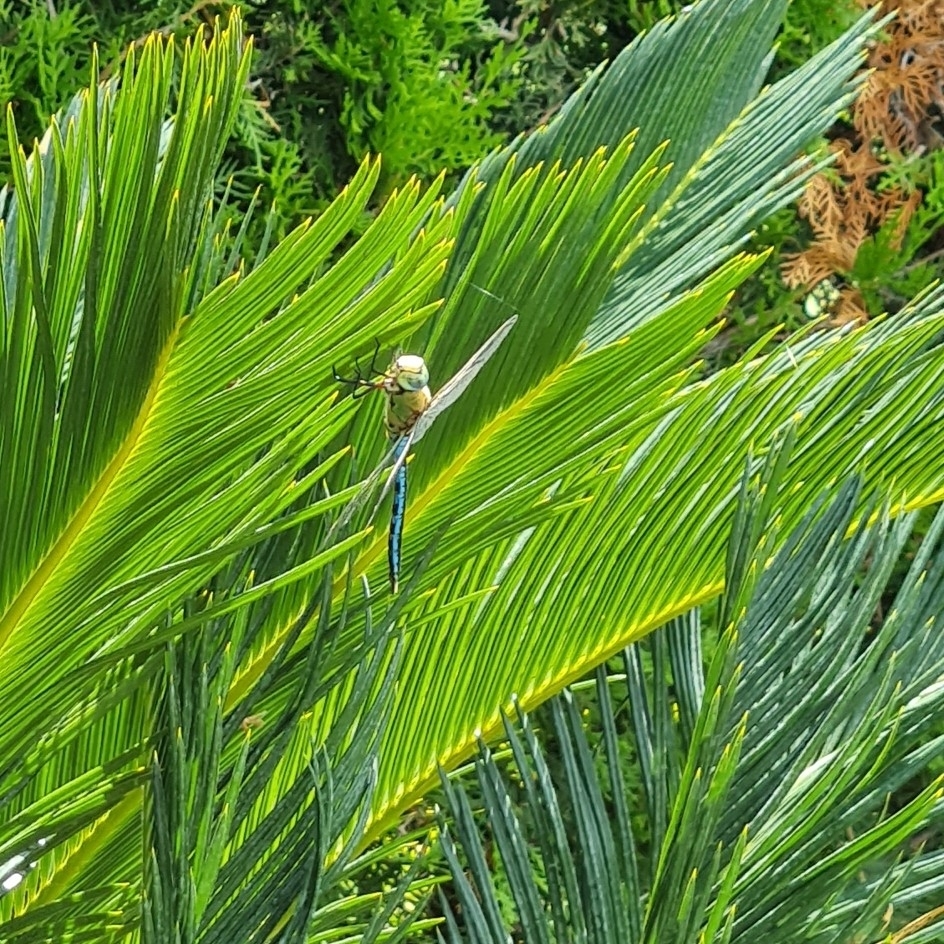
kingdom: Animalia
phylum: Arthropoda
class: Insecta
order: Odonata
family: Aeshnidae
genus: Anax
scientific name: Anax imperator
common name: Emperor dragonfly
